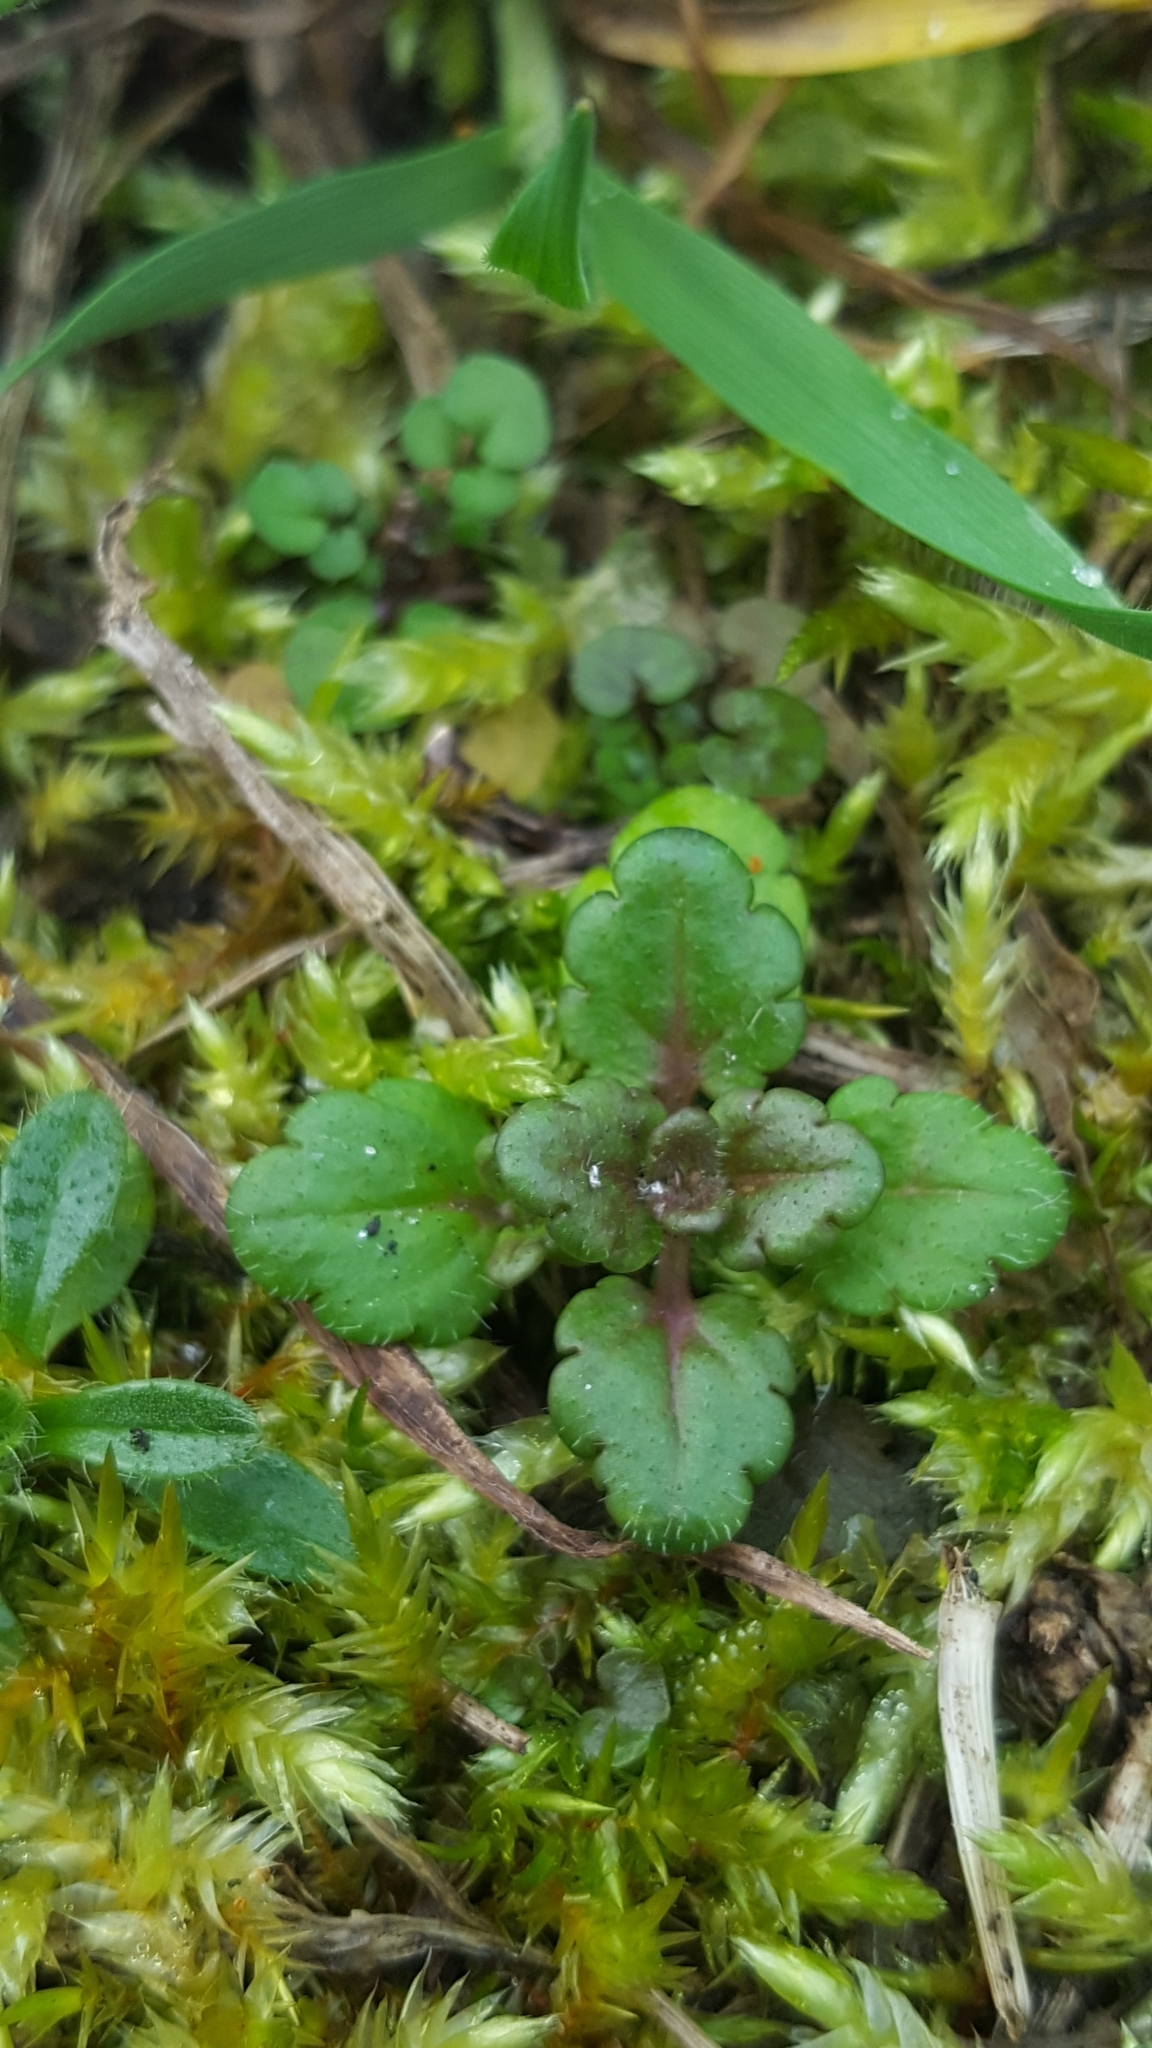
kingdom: Plantae
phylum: Tracheophyta
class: Magnoliopsida
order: Lamiales
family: Plantaginaceae
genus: Veronica
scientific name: Veronica persica
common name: Common field-speedwell
